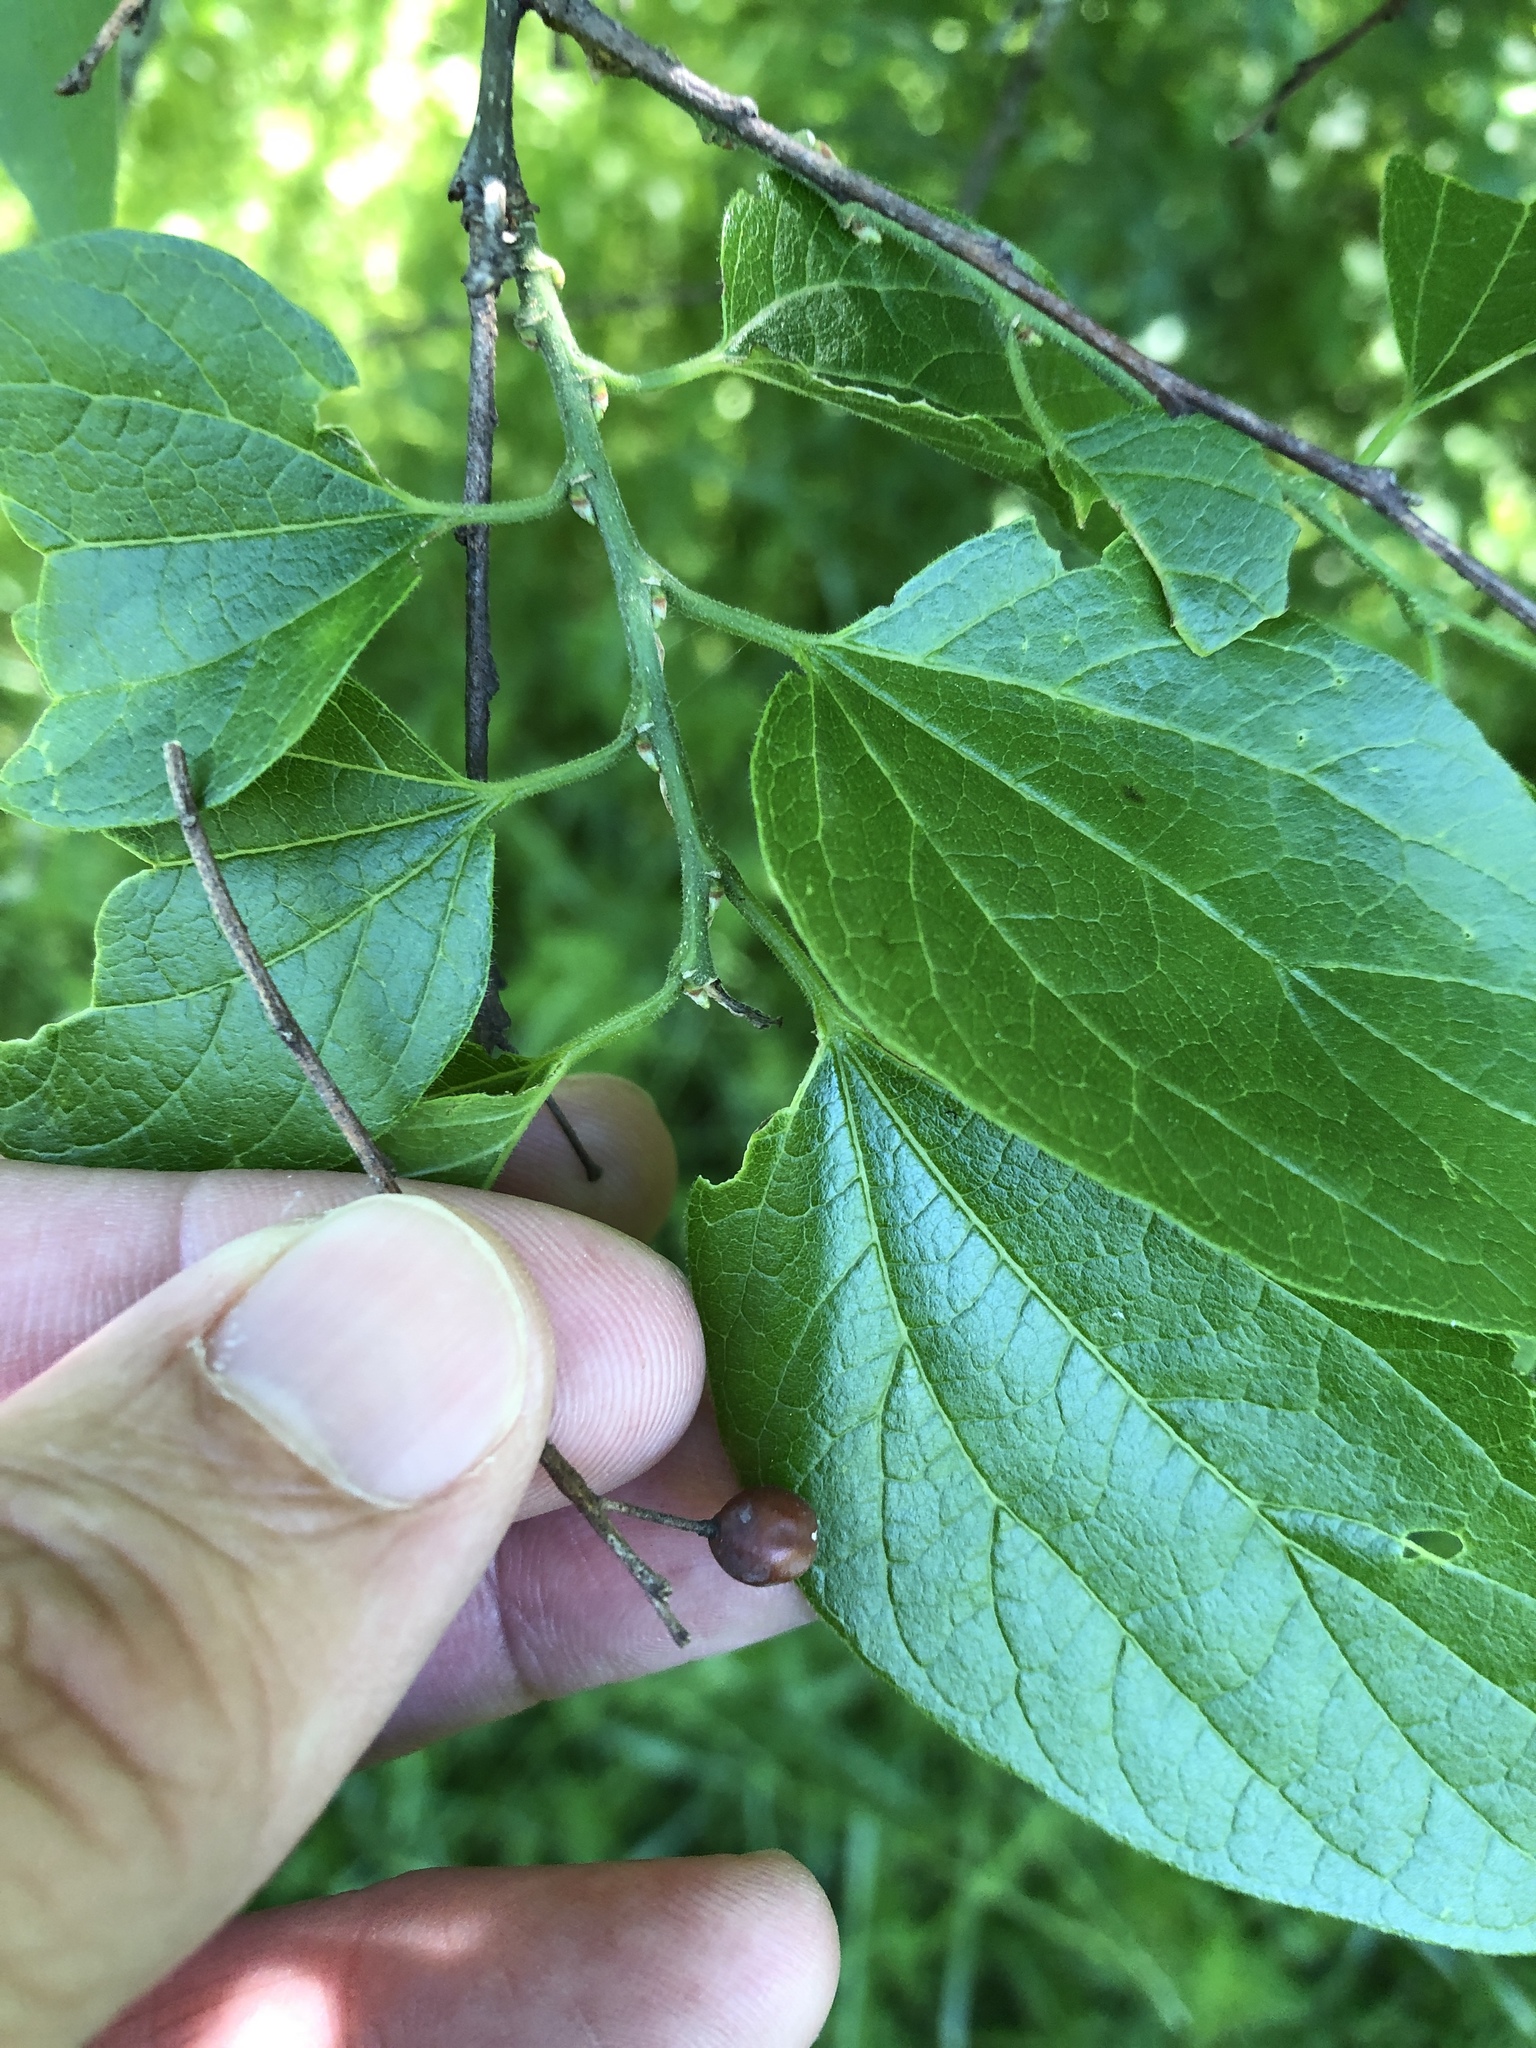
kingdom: Plantae
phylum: Tracheophyta
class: Magnoliopsida
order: Rosales
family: Cannabaceae
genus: Celtis
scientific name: Celtis laevigata
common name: Sugarberry
